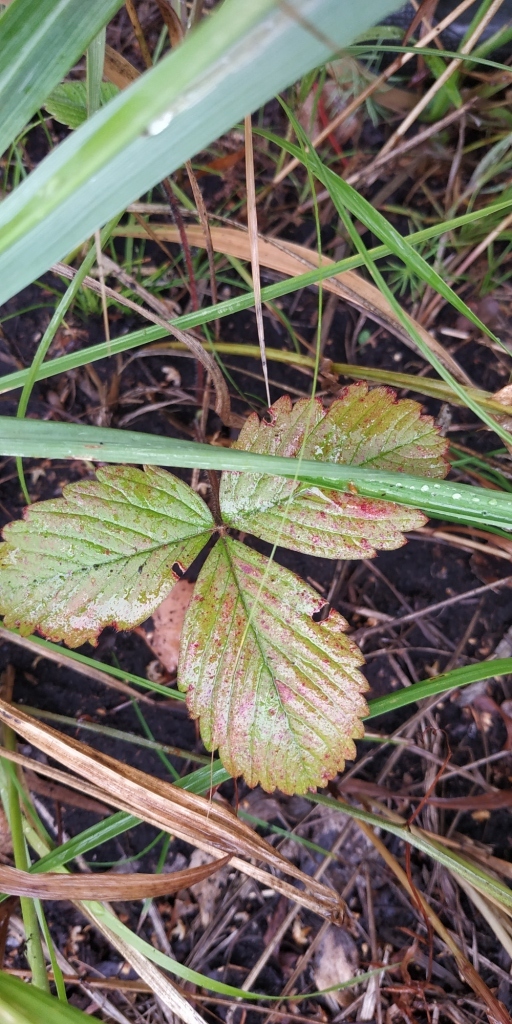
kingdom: Plantae
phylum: Tracheophyta
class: Magnoliopsida
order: Rosales
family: Rosaceae
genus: Fragaria
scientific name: Fragaria viridis
